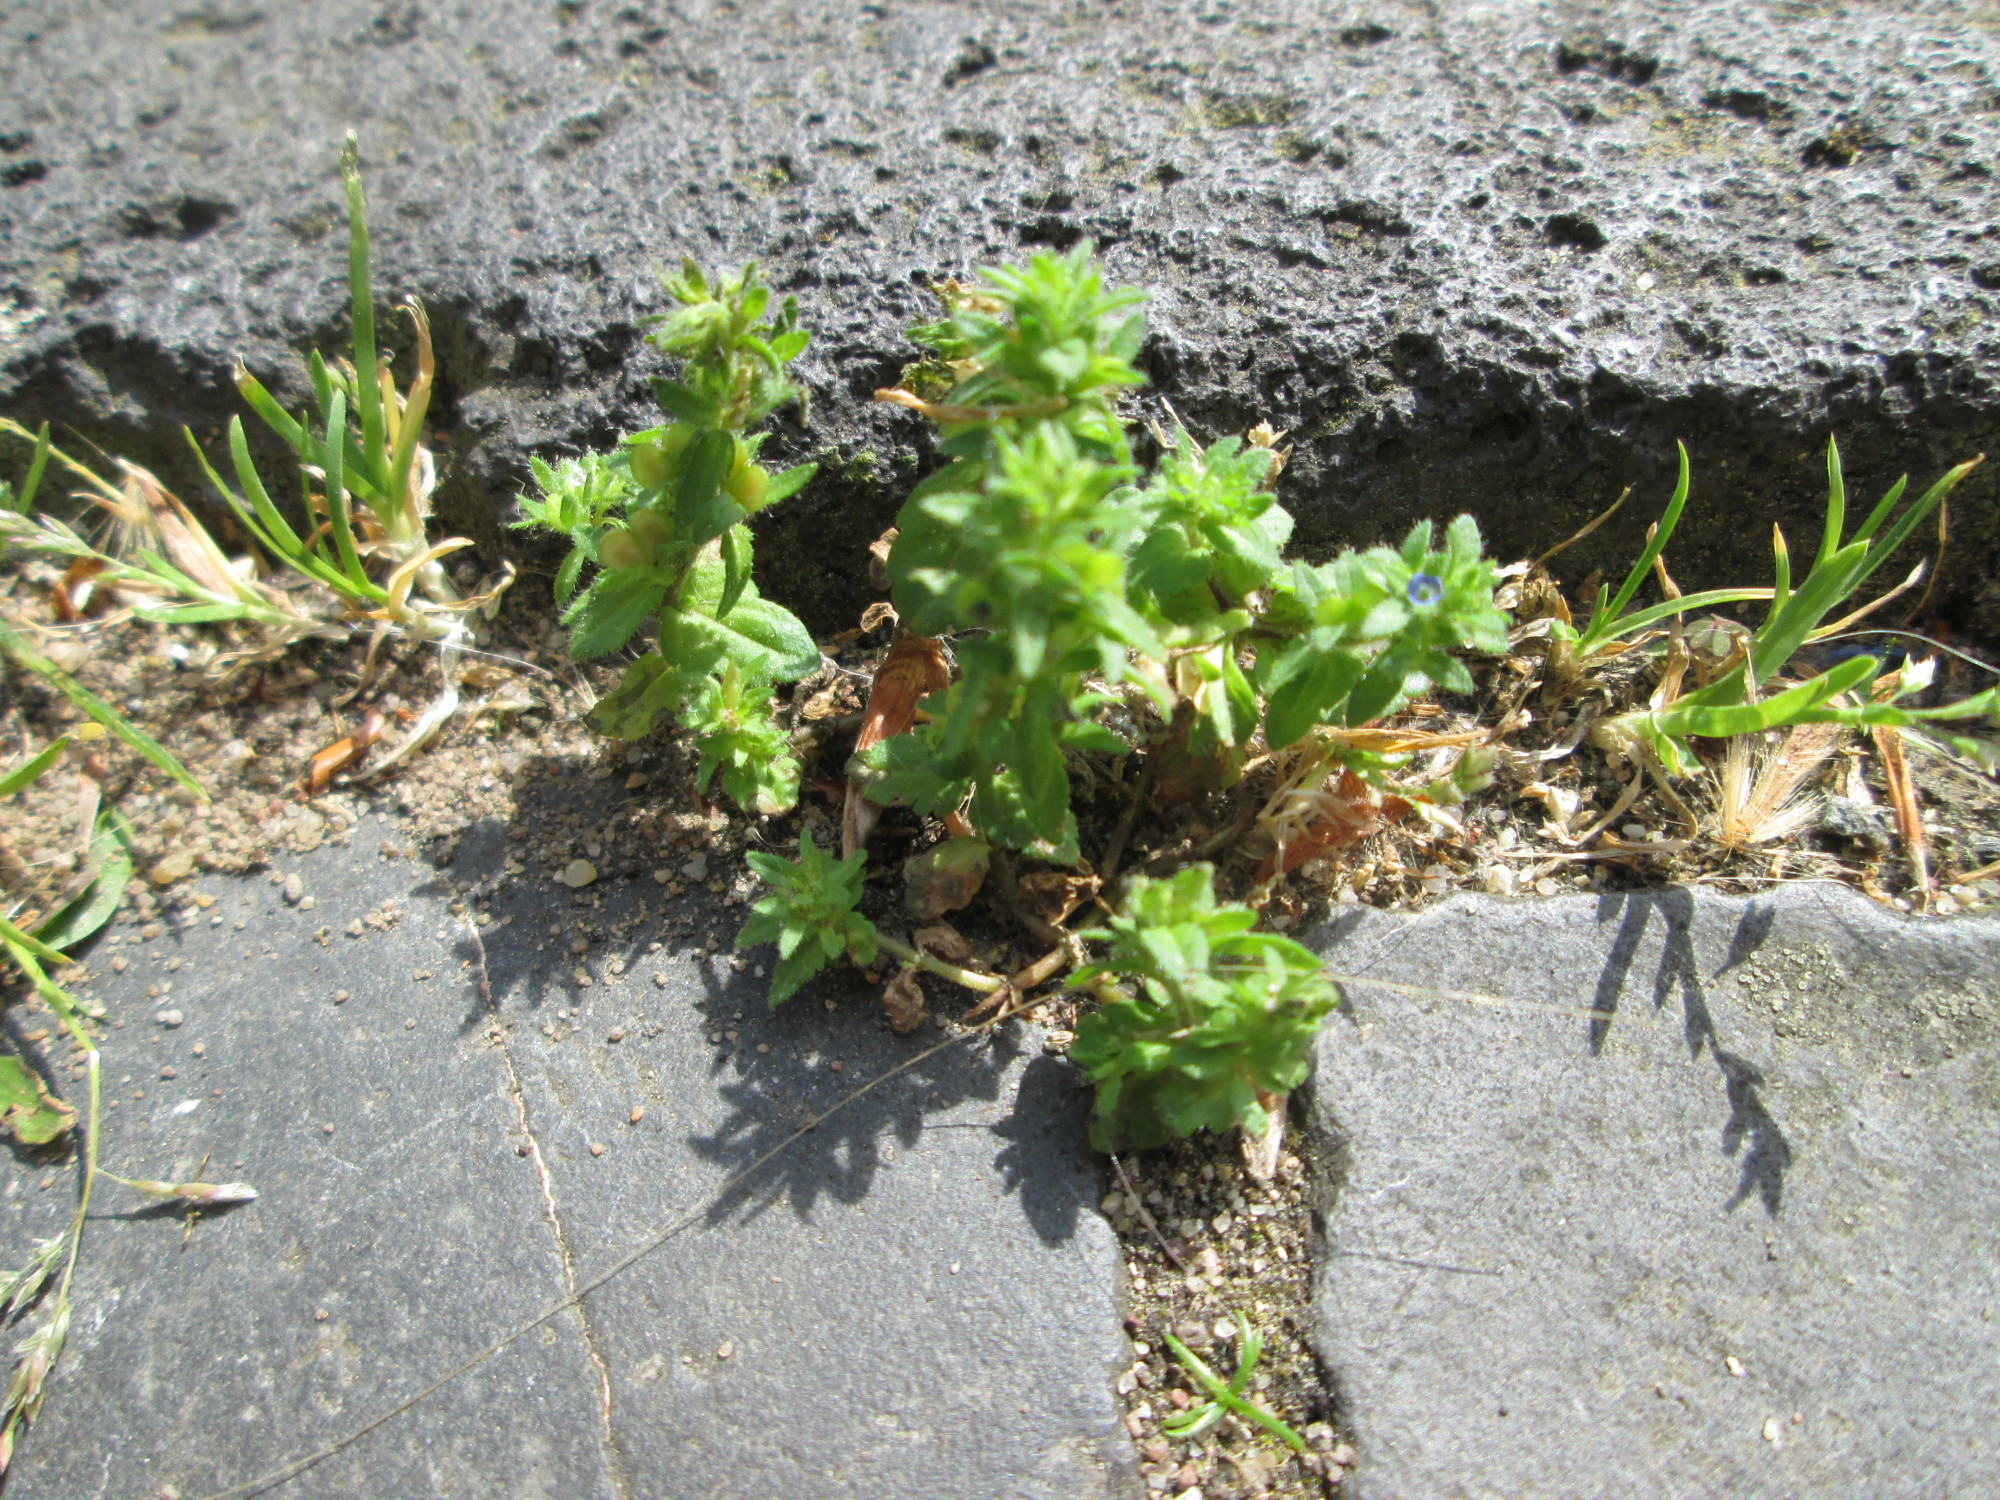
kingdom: Plantae
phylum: Tracheophyta
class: Magnoliopsida
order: Lamiales
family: Plantaginaceae
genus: Veronica
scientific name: Veronica arvensis
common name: Corn speedwell
